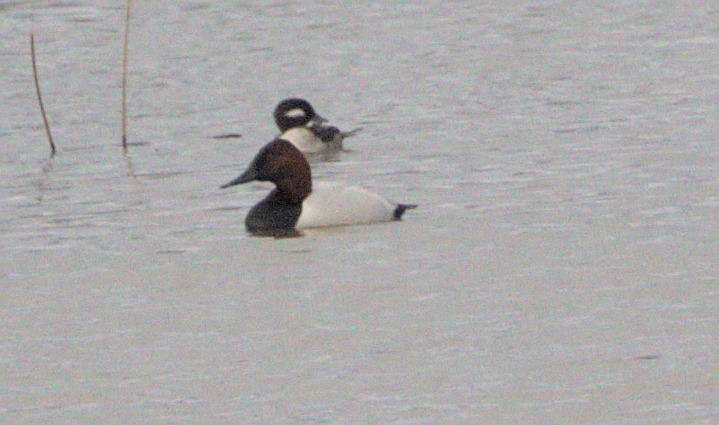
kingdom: Animalia
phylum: Chordata
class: Aves
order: Anseriformes
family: Anatidae
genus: Aythya
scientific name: Aythya valisineria
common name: Canvasback
